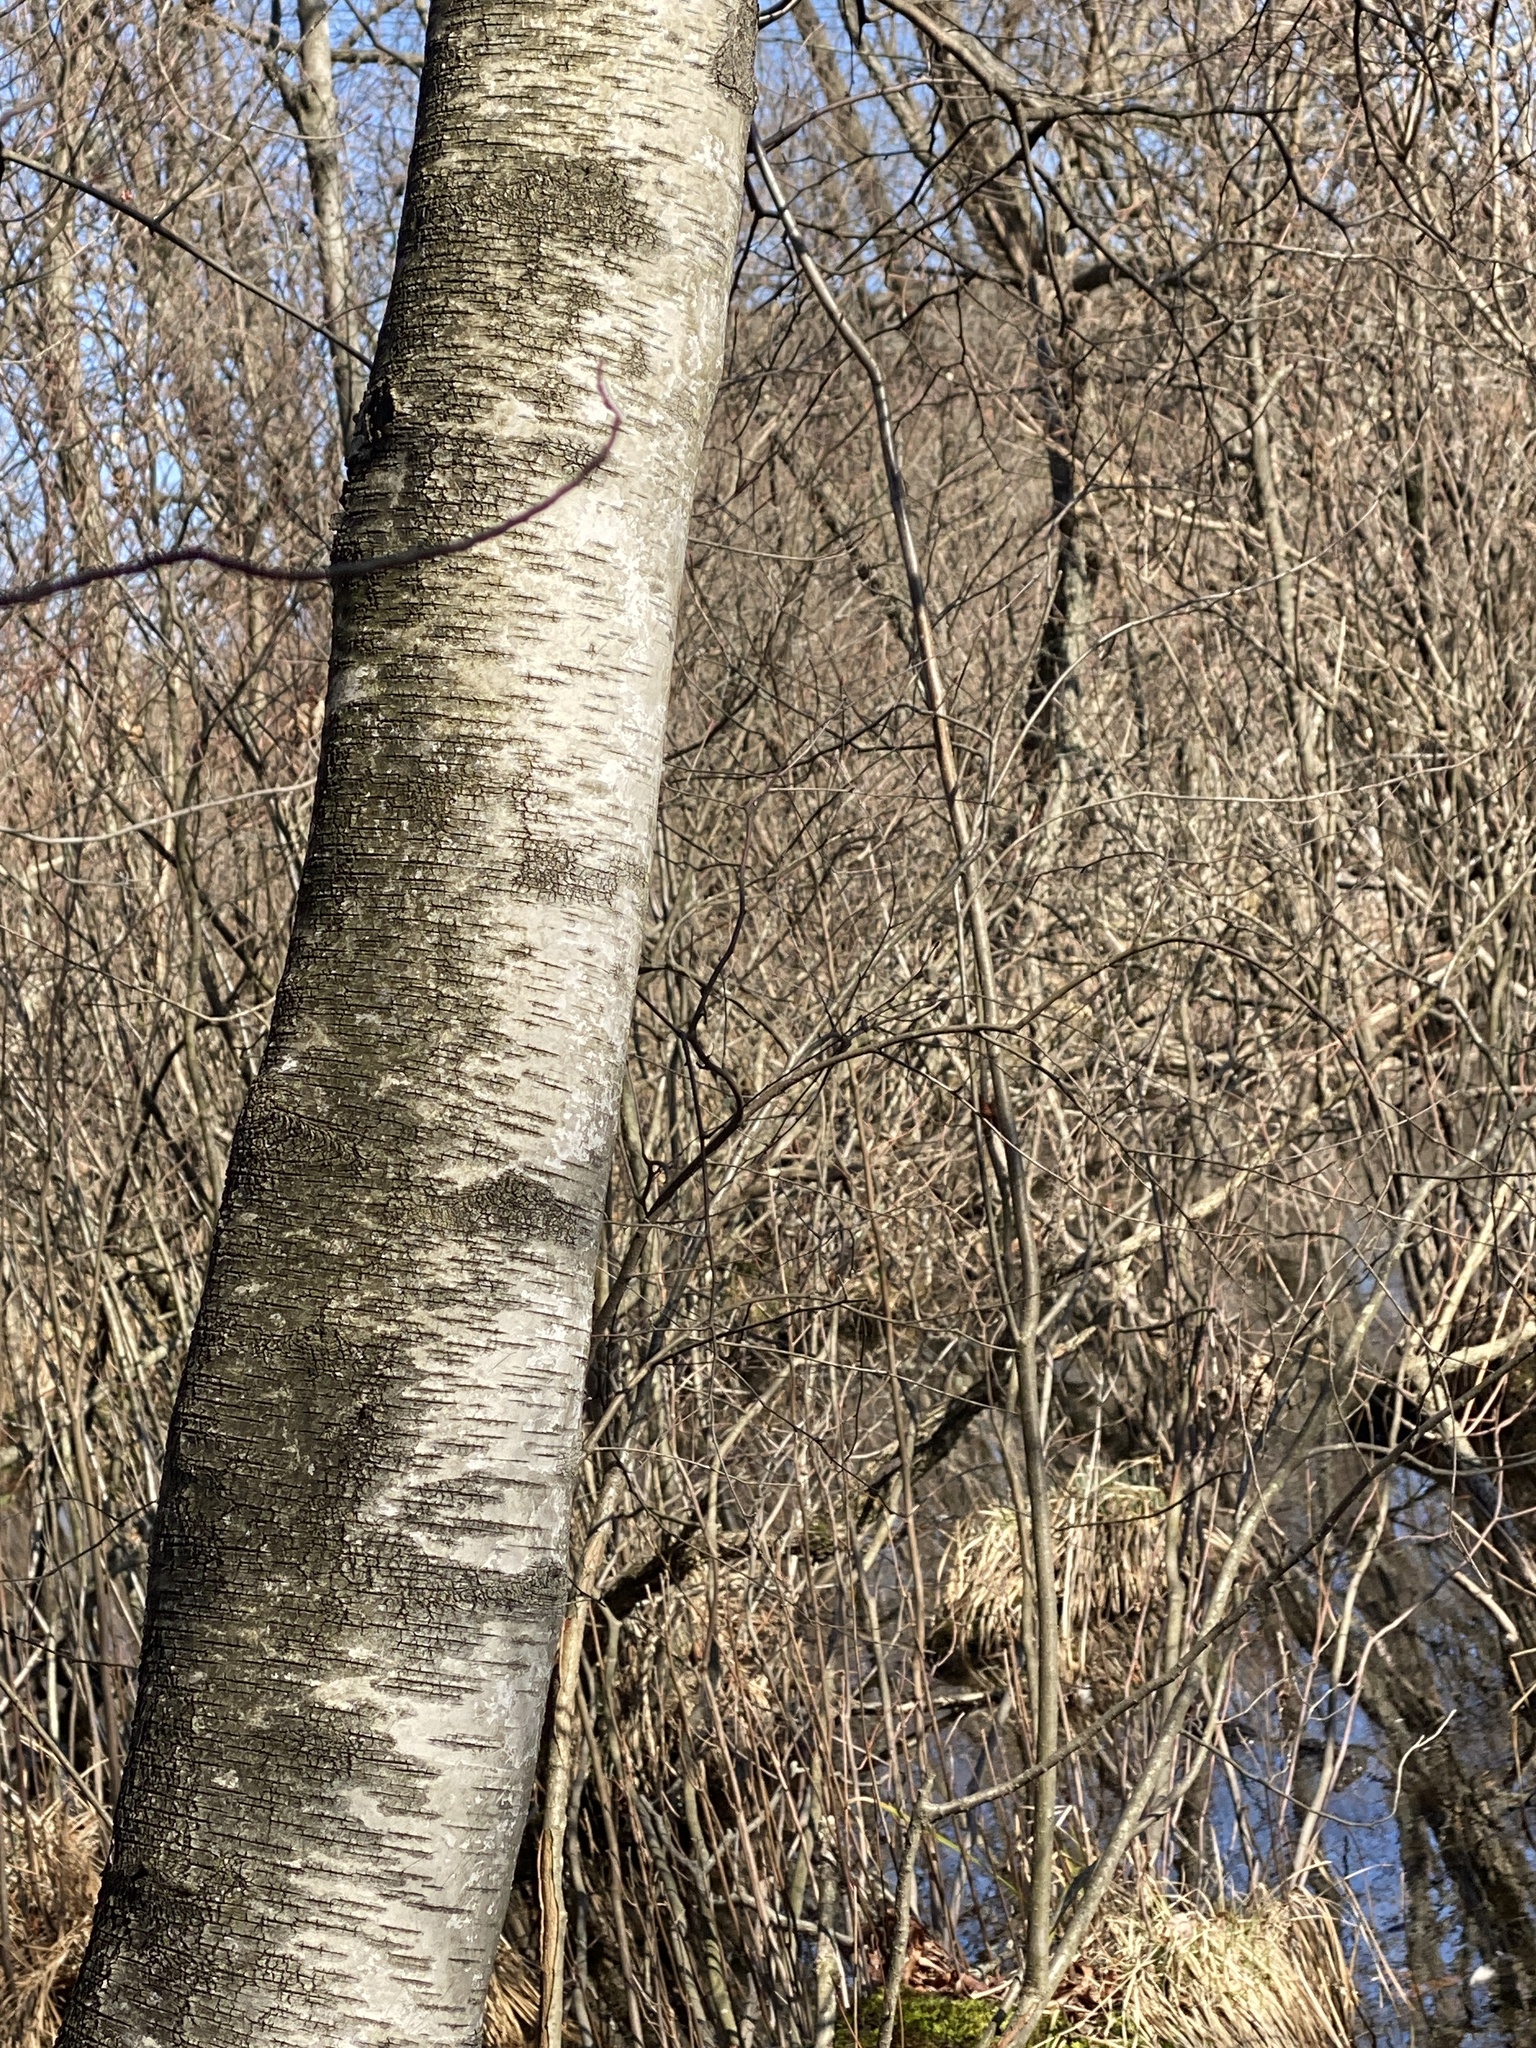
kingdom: Plantae
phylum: Tracheophyta
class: Magnoliopsida
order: Fagales
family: Betulaceae
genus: Betula
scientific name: Betula populifolia
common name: Fire birch
